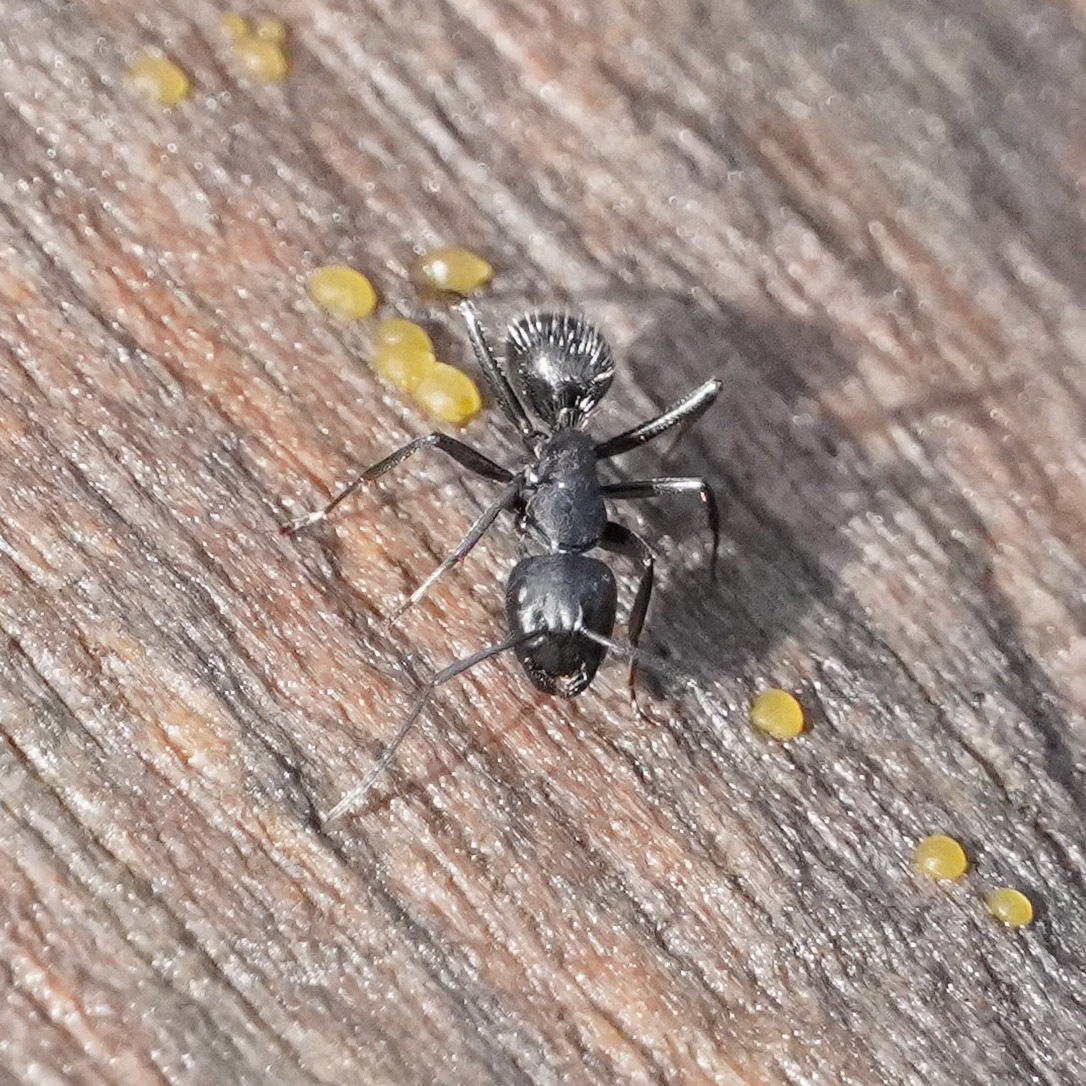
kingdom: Animalia
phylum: Arthropoda
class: Insecta
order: Hymenoptera
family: Formicidae
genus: Camponotus
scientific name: Camponotus vagus
